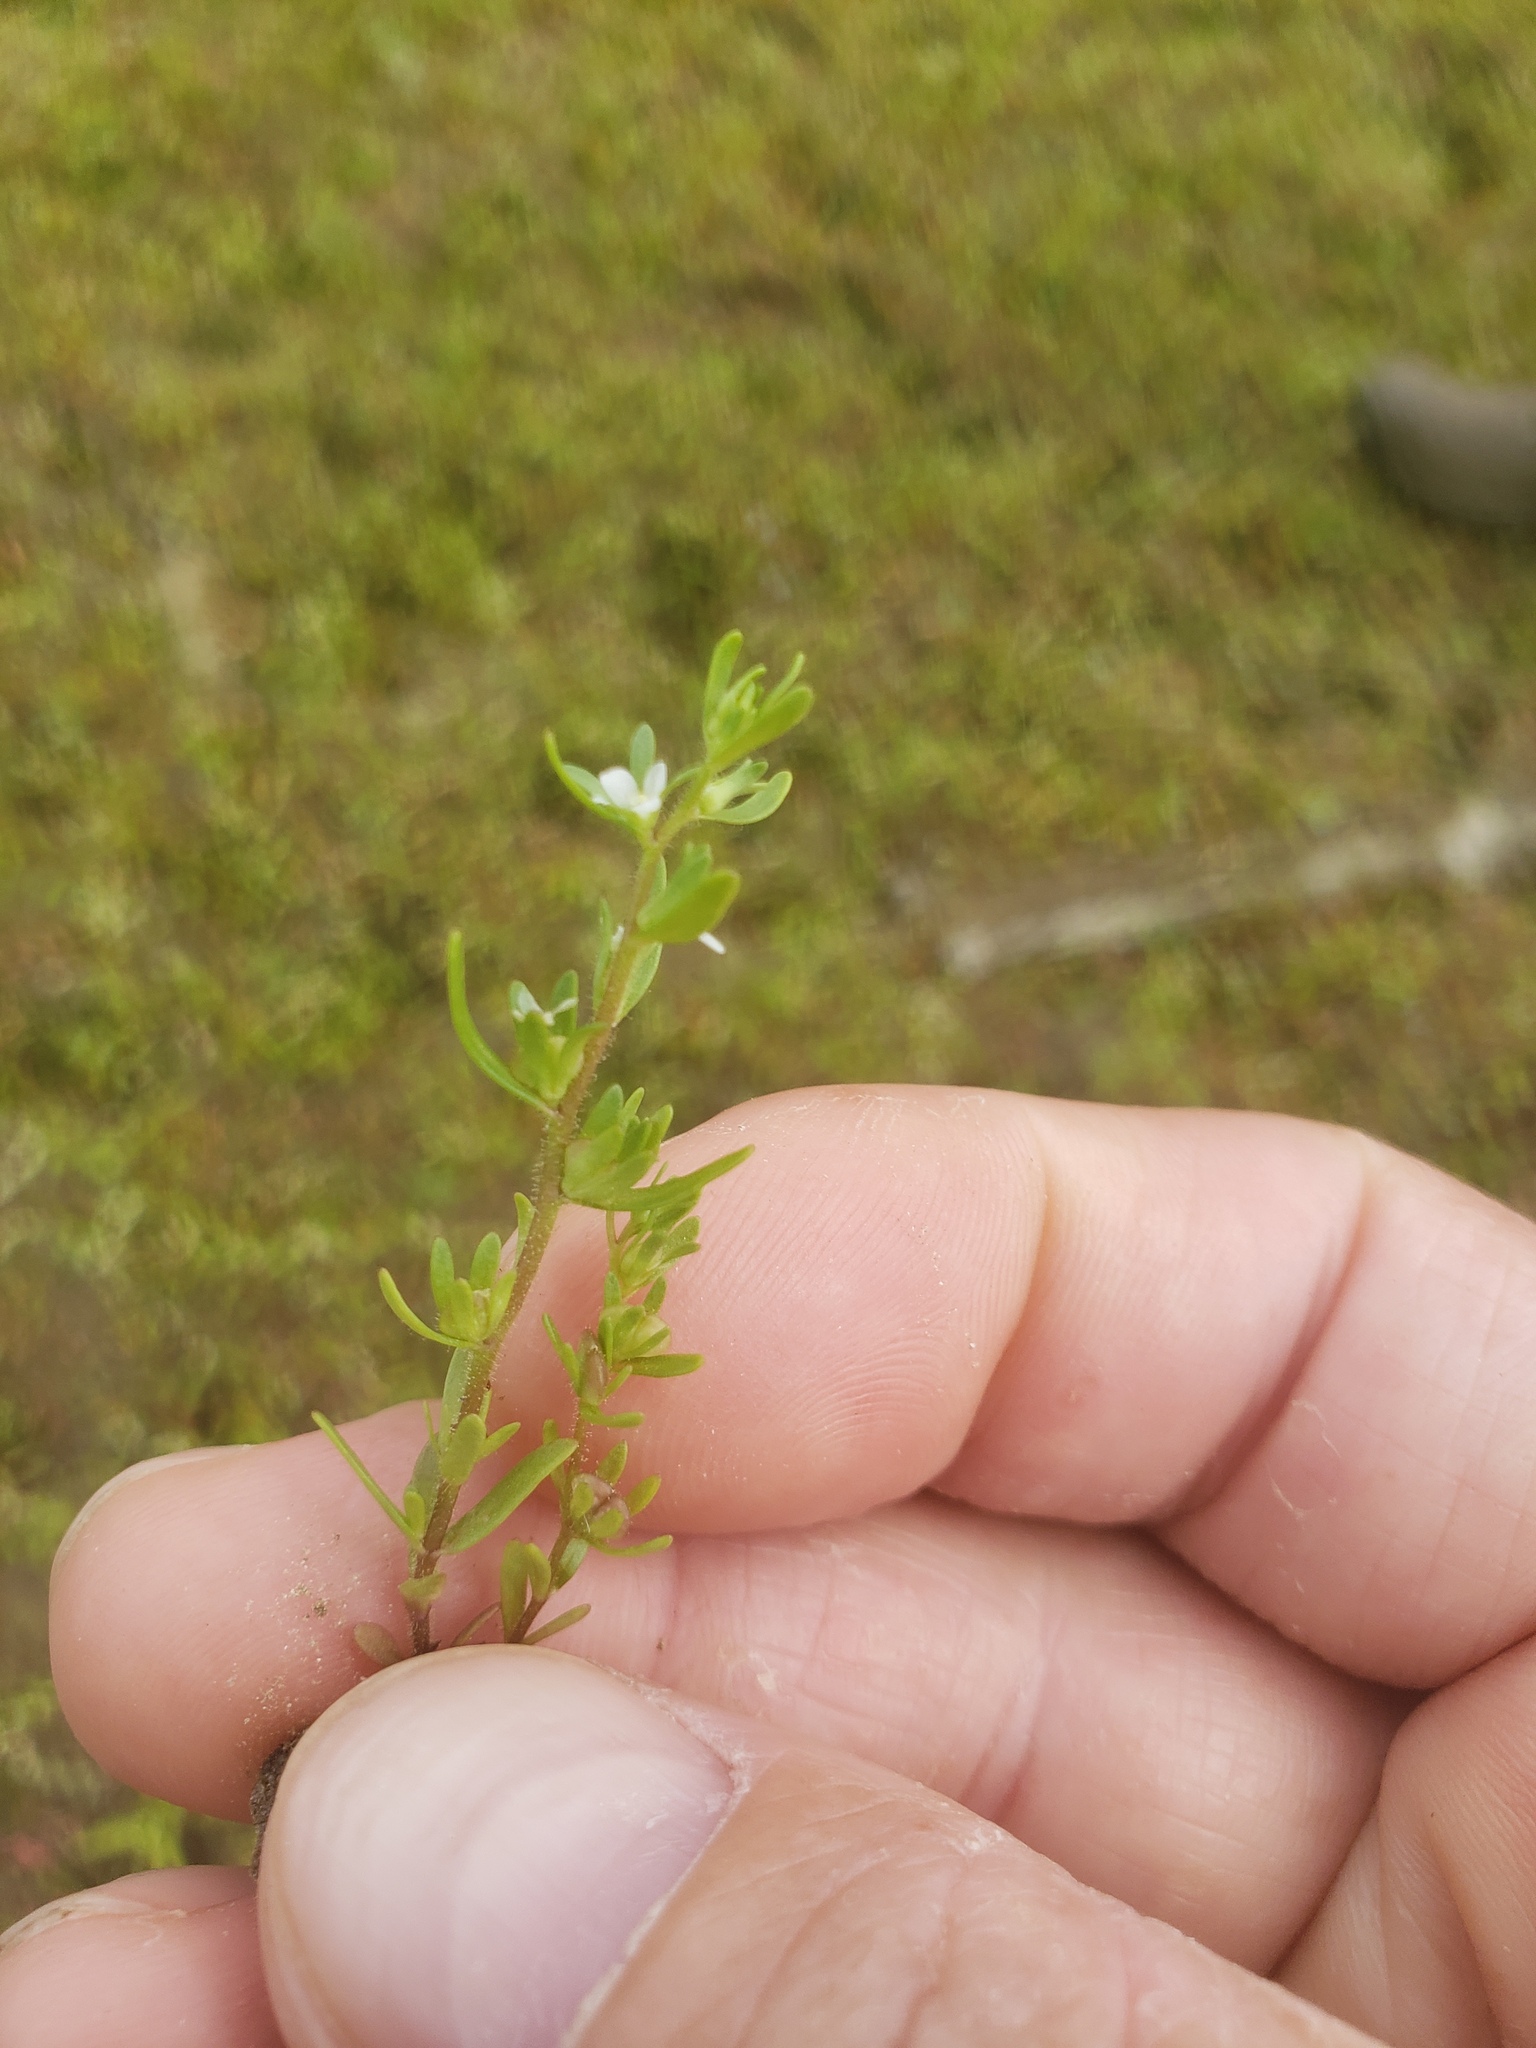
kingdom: Plantae
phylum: Tracheophyta
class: Magnoliopsida
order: Lamiales
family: Plantaginaceae
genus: Veronica
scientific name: Veronica peregrina
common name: Neckweed
